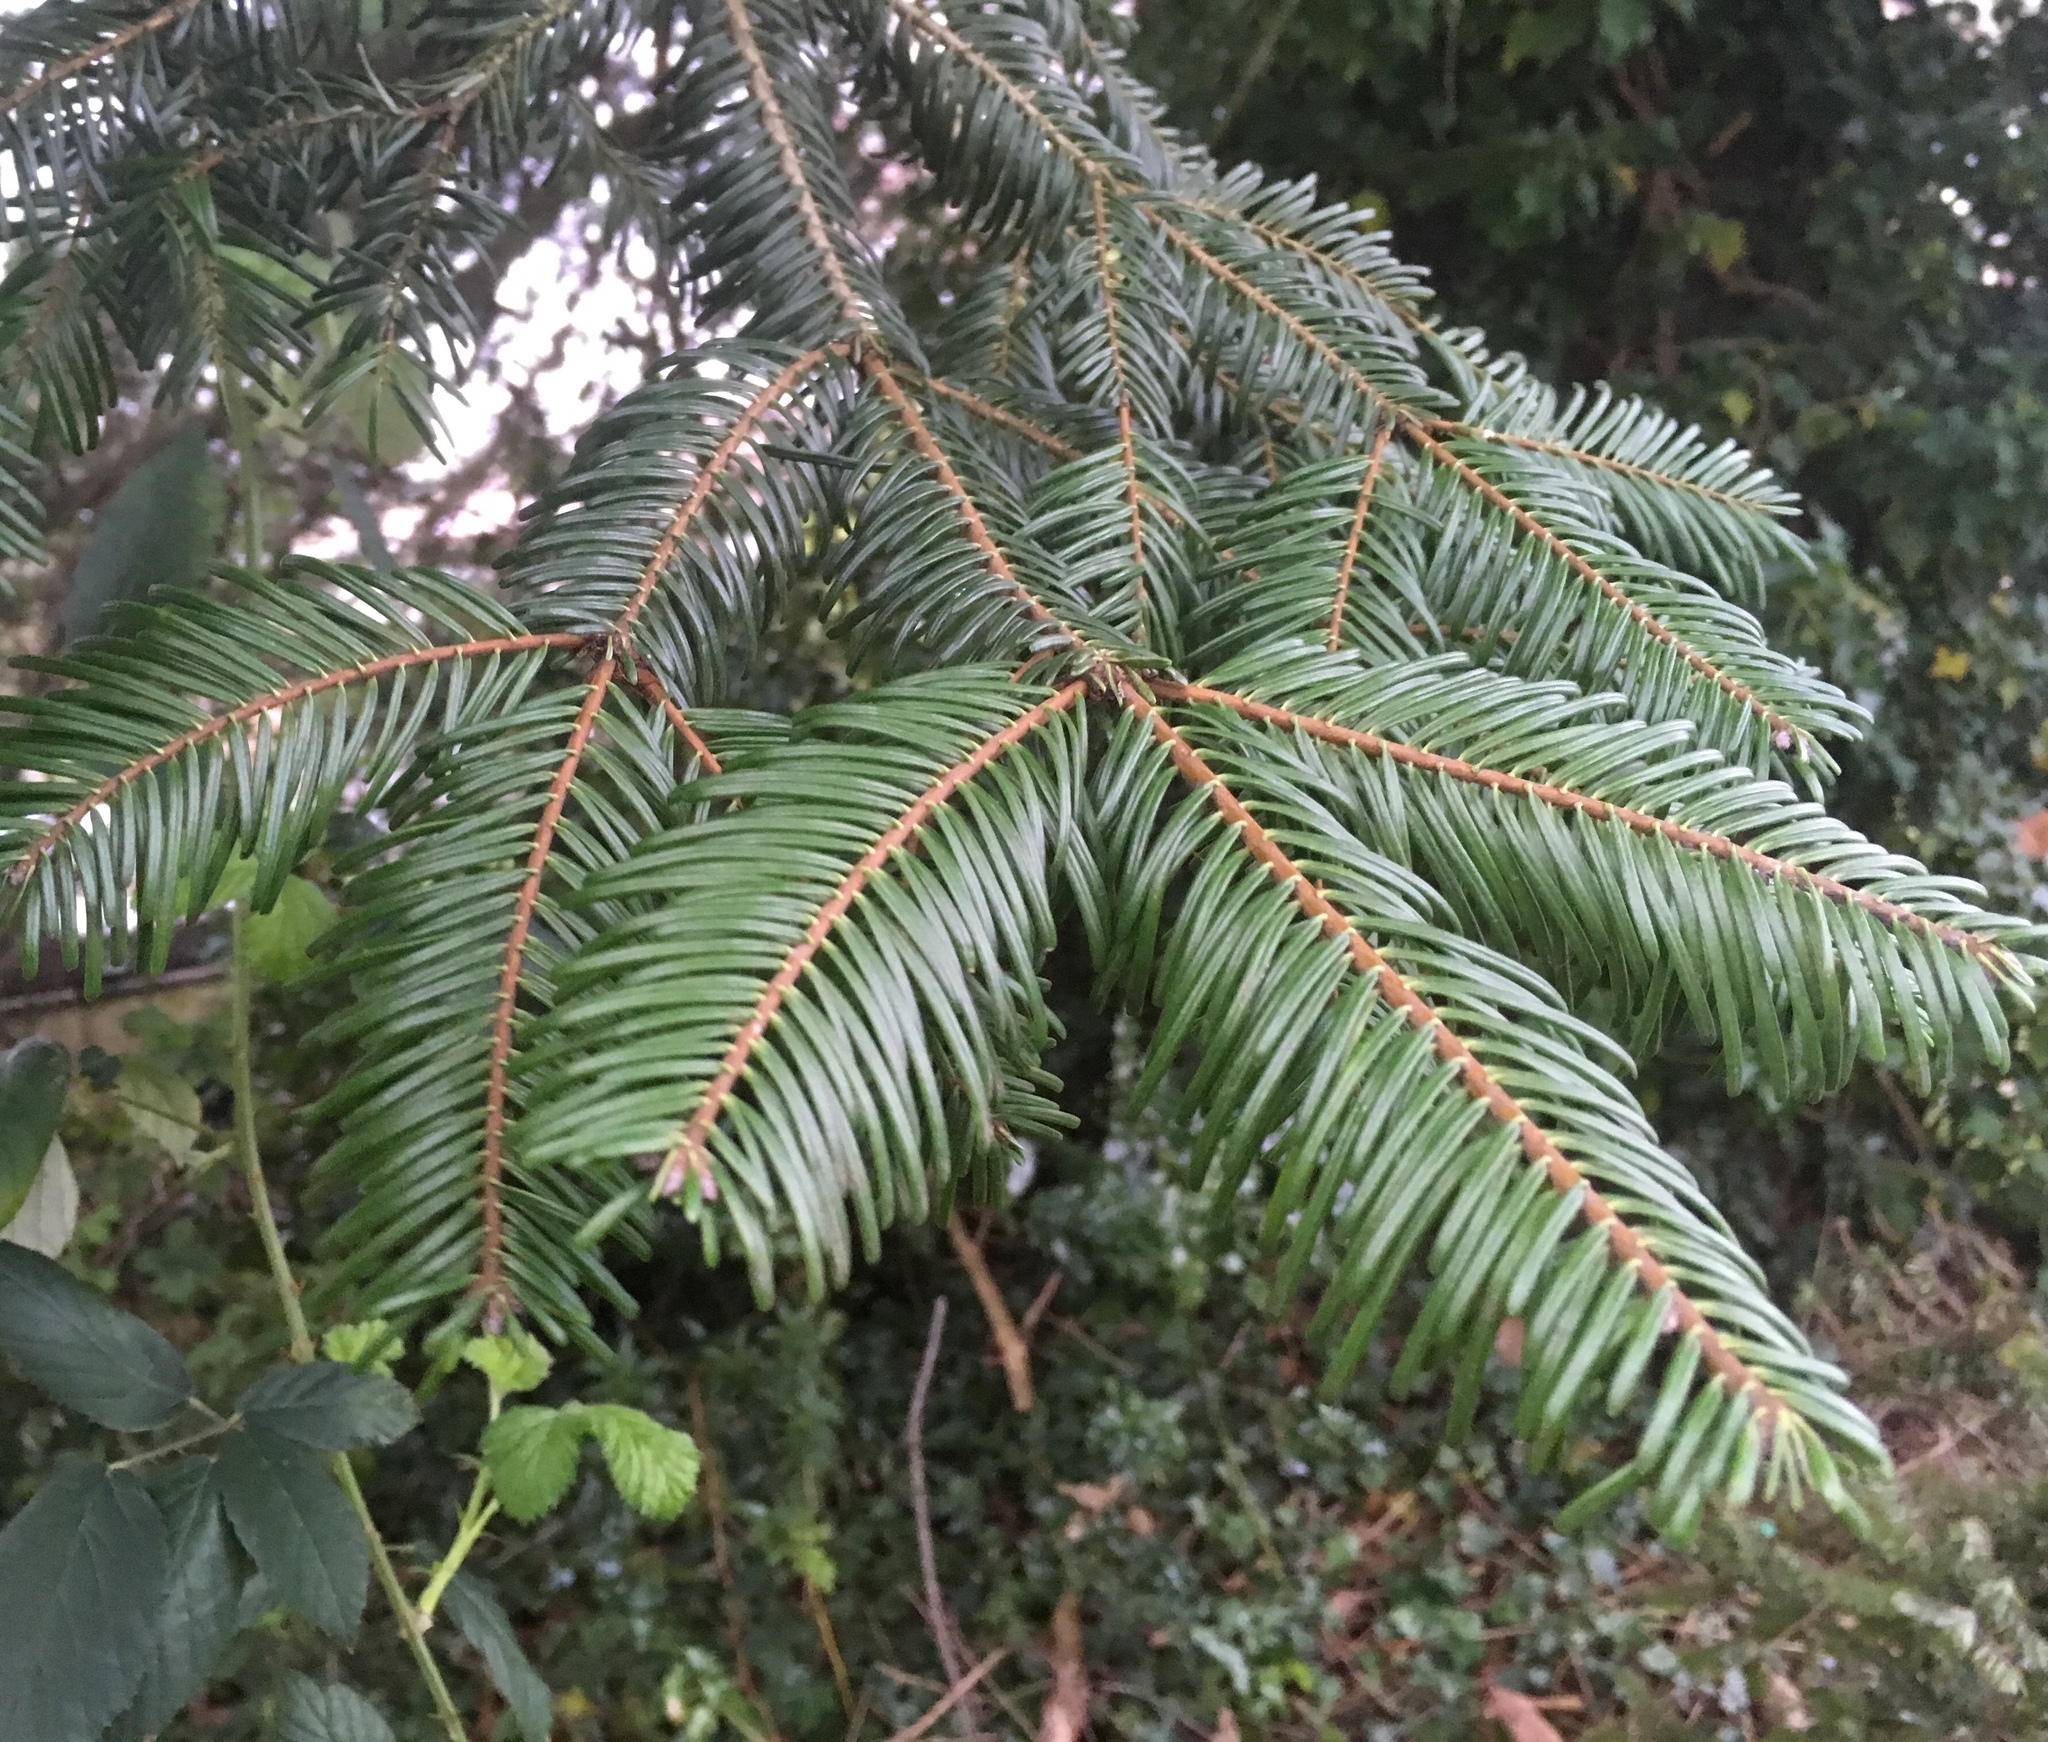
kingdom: Plantae
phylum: Tracheophyta
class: Pinopsida
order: Pinales
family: Pinaceae
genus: Abies
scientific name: Abies grandis
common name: Giant fir
